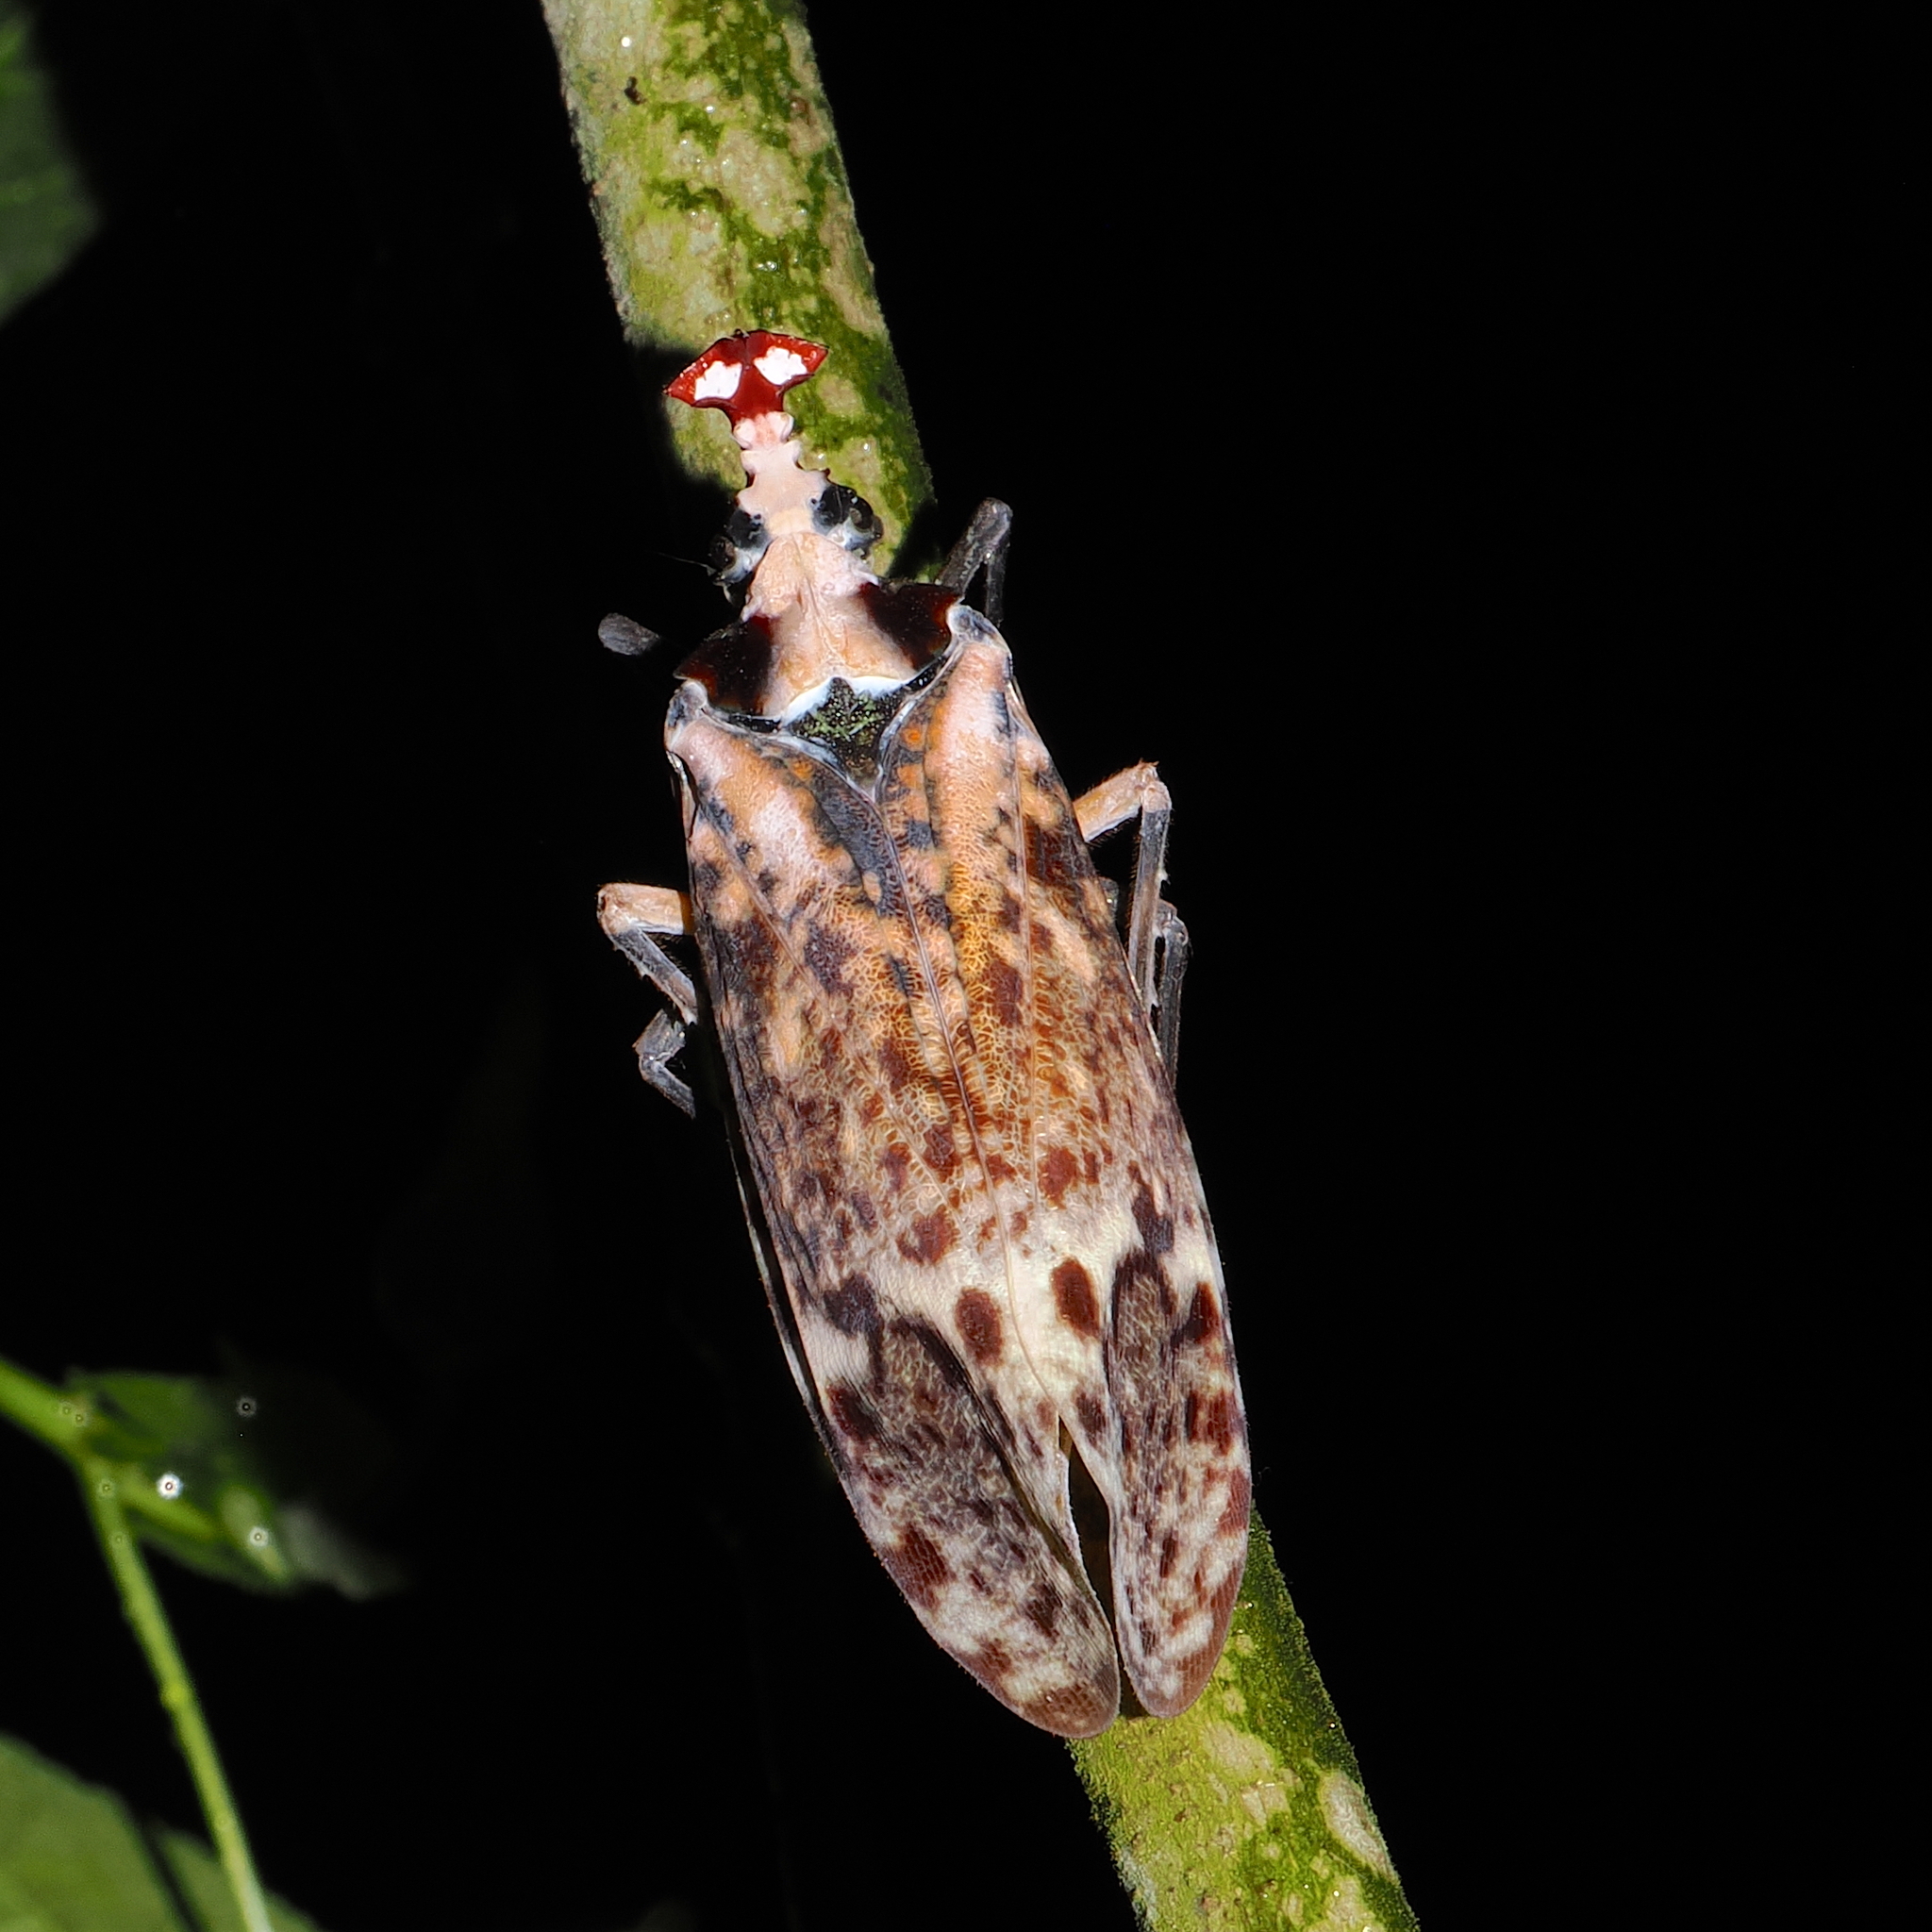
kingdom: Animalia
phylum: Arthropoda
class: Insecta
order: Hemiptera
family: Fulgoridae
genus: Phrictus
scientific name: Phrictus moebiusi
